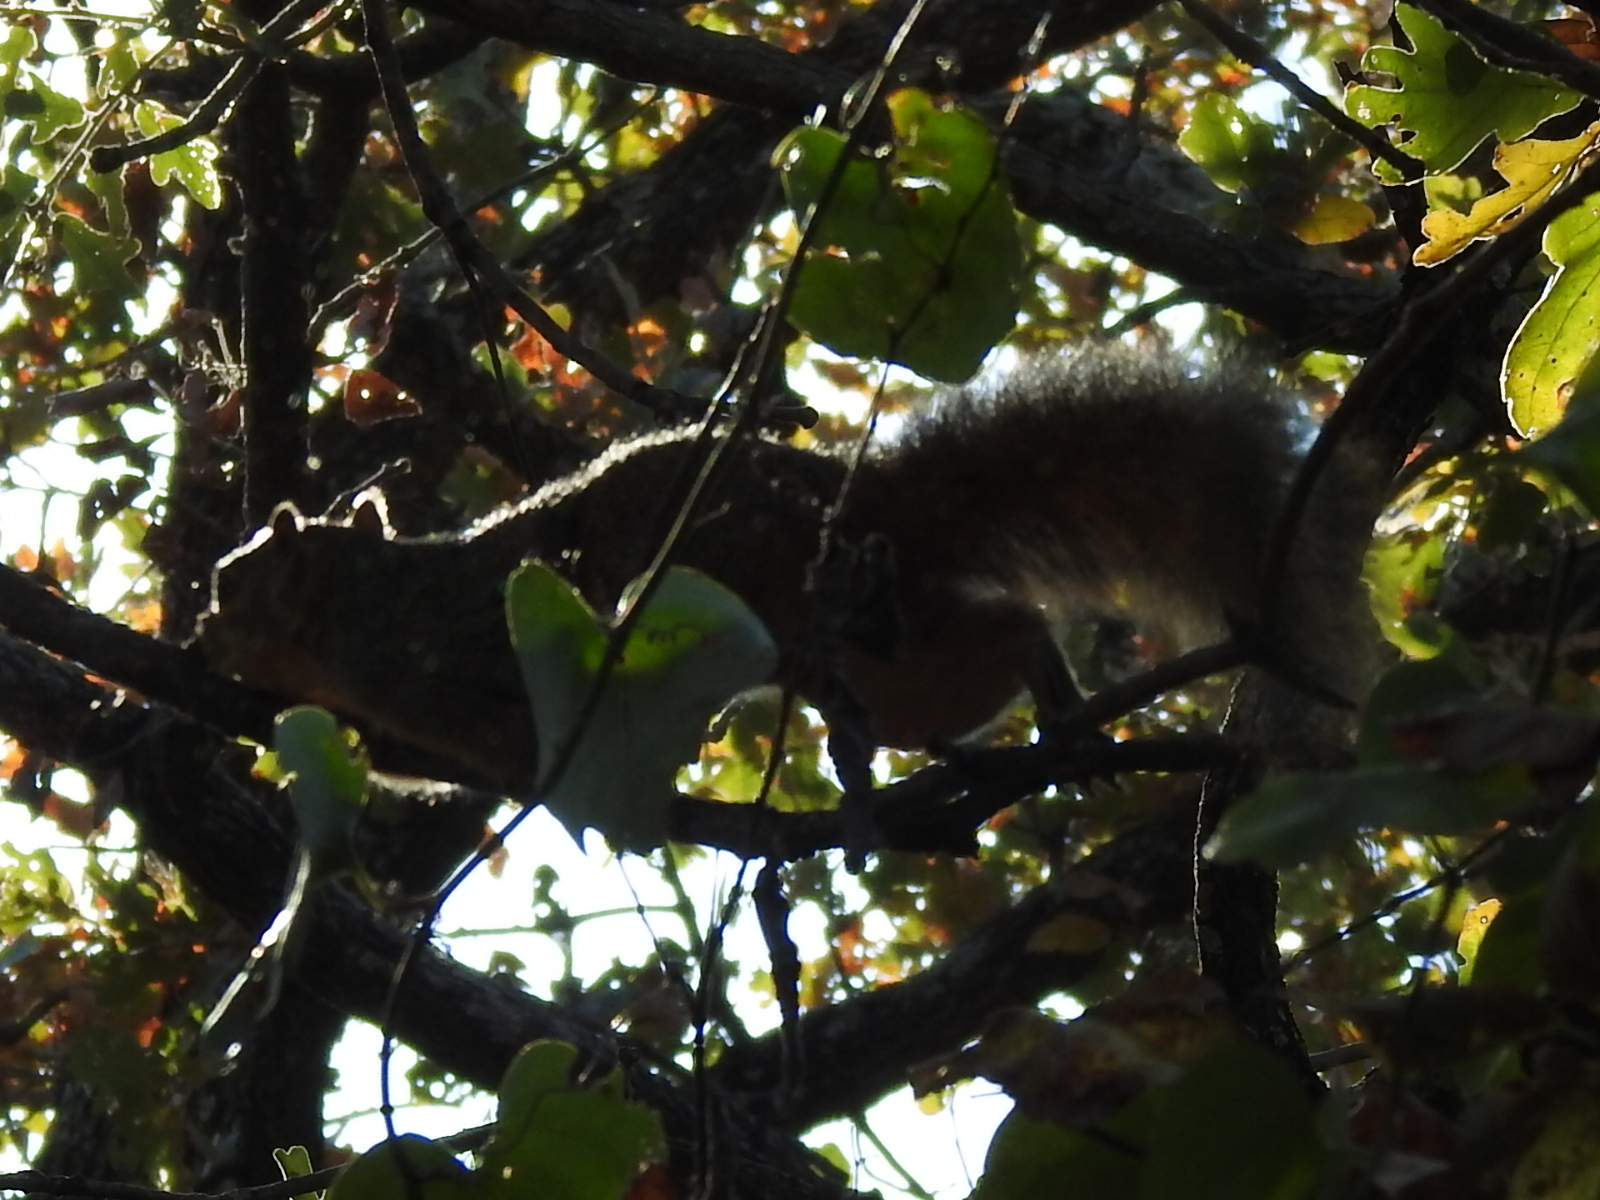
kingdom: Animalia
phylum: Chordata
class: Mammalia
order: Rodentia
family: Sciuridae
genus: Sciurus
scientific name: Sciurus niger
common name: Fox squirrel
